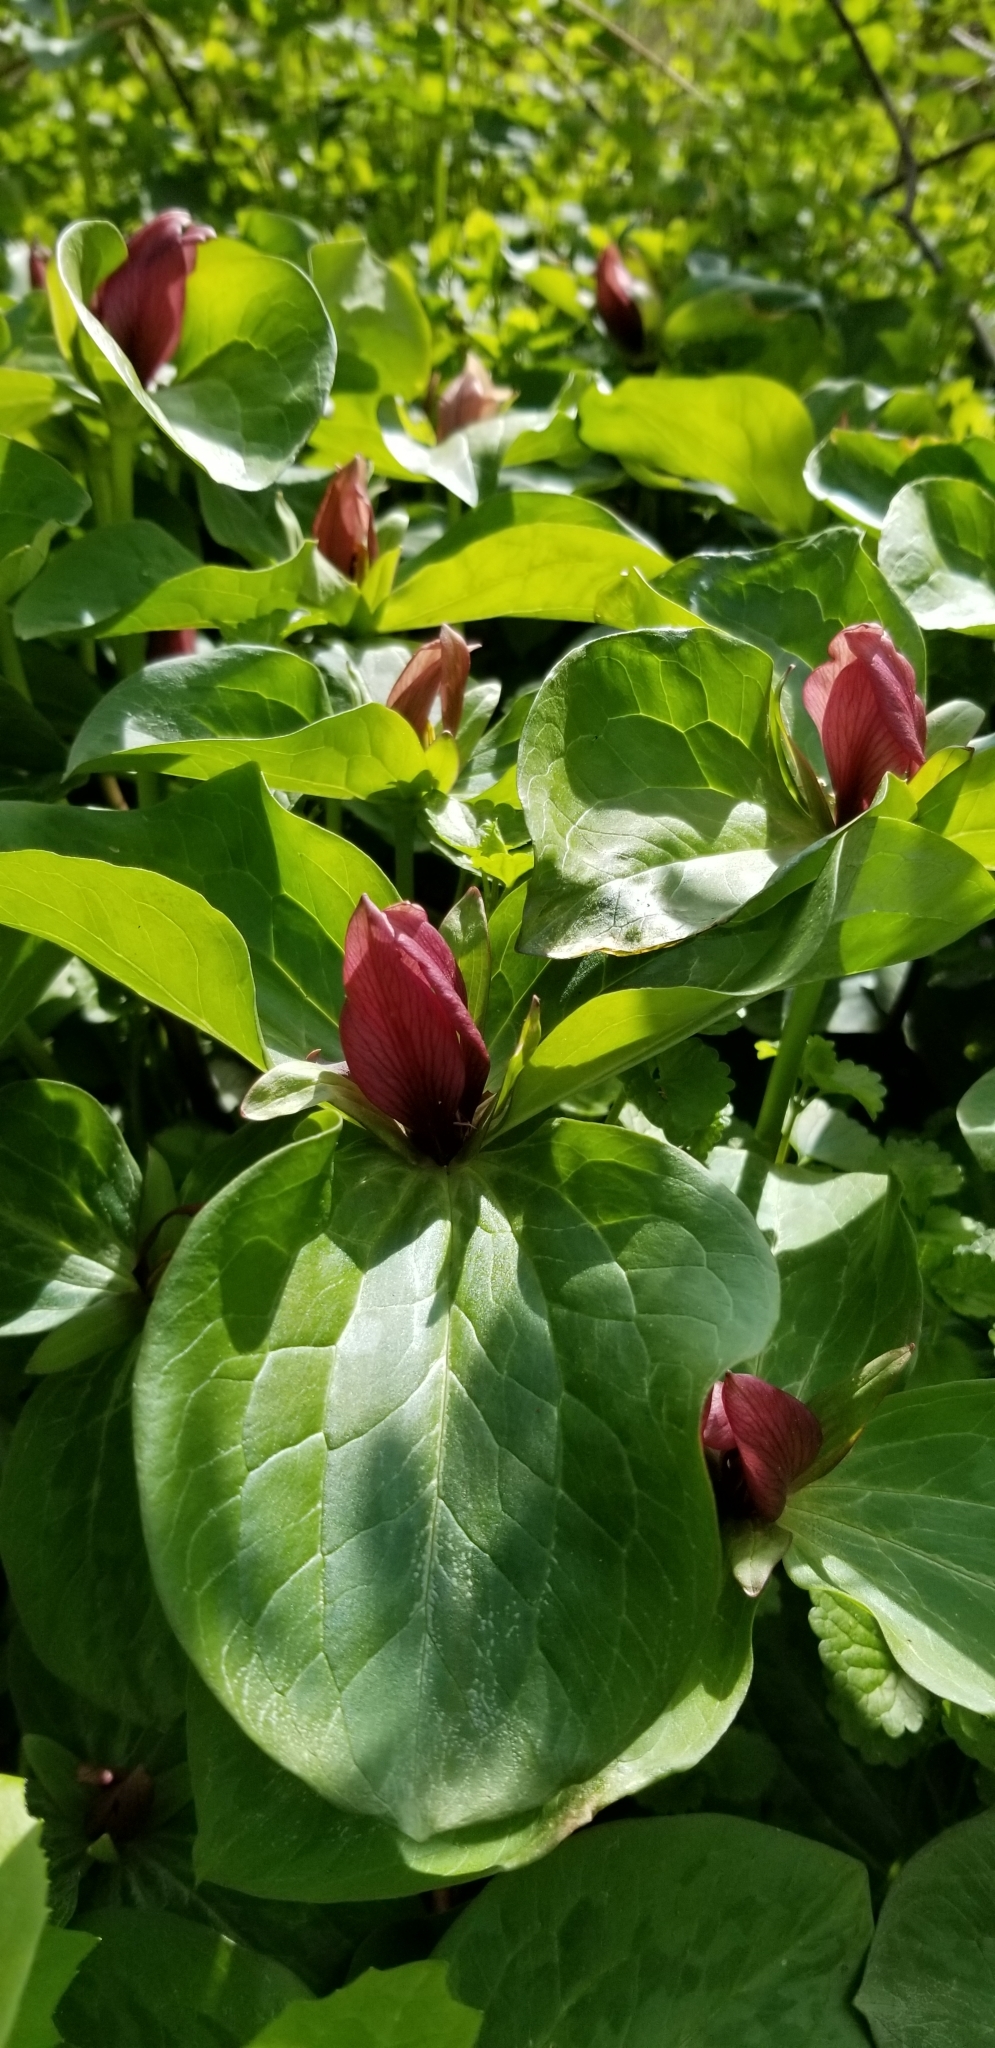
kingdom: Plantae
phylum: Tracheophyta
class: Liliopsida
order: Liliales
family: Melanthiaceae
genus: Trillium
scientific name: Trillium sessile
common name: Sessile trillium
